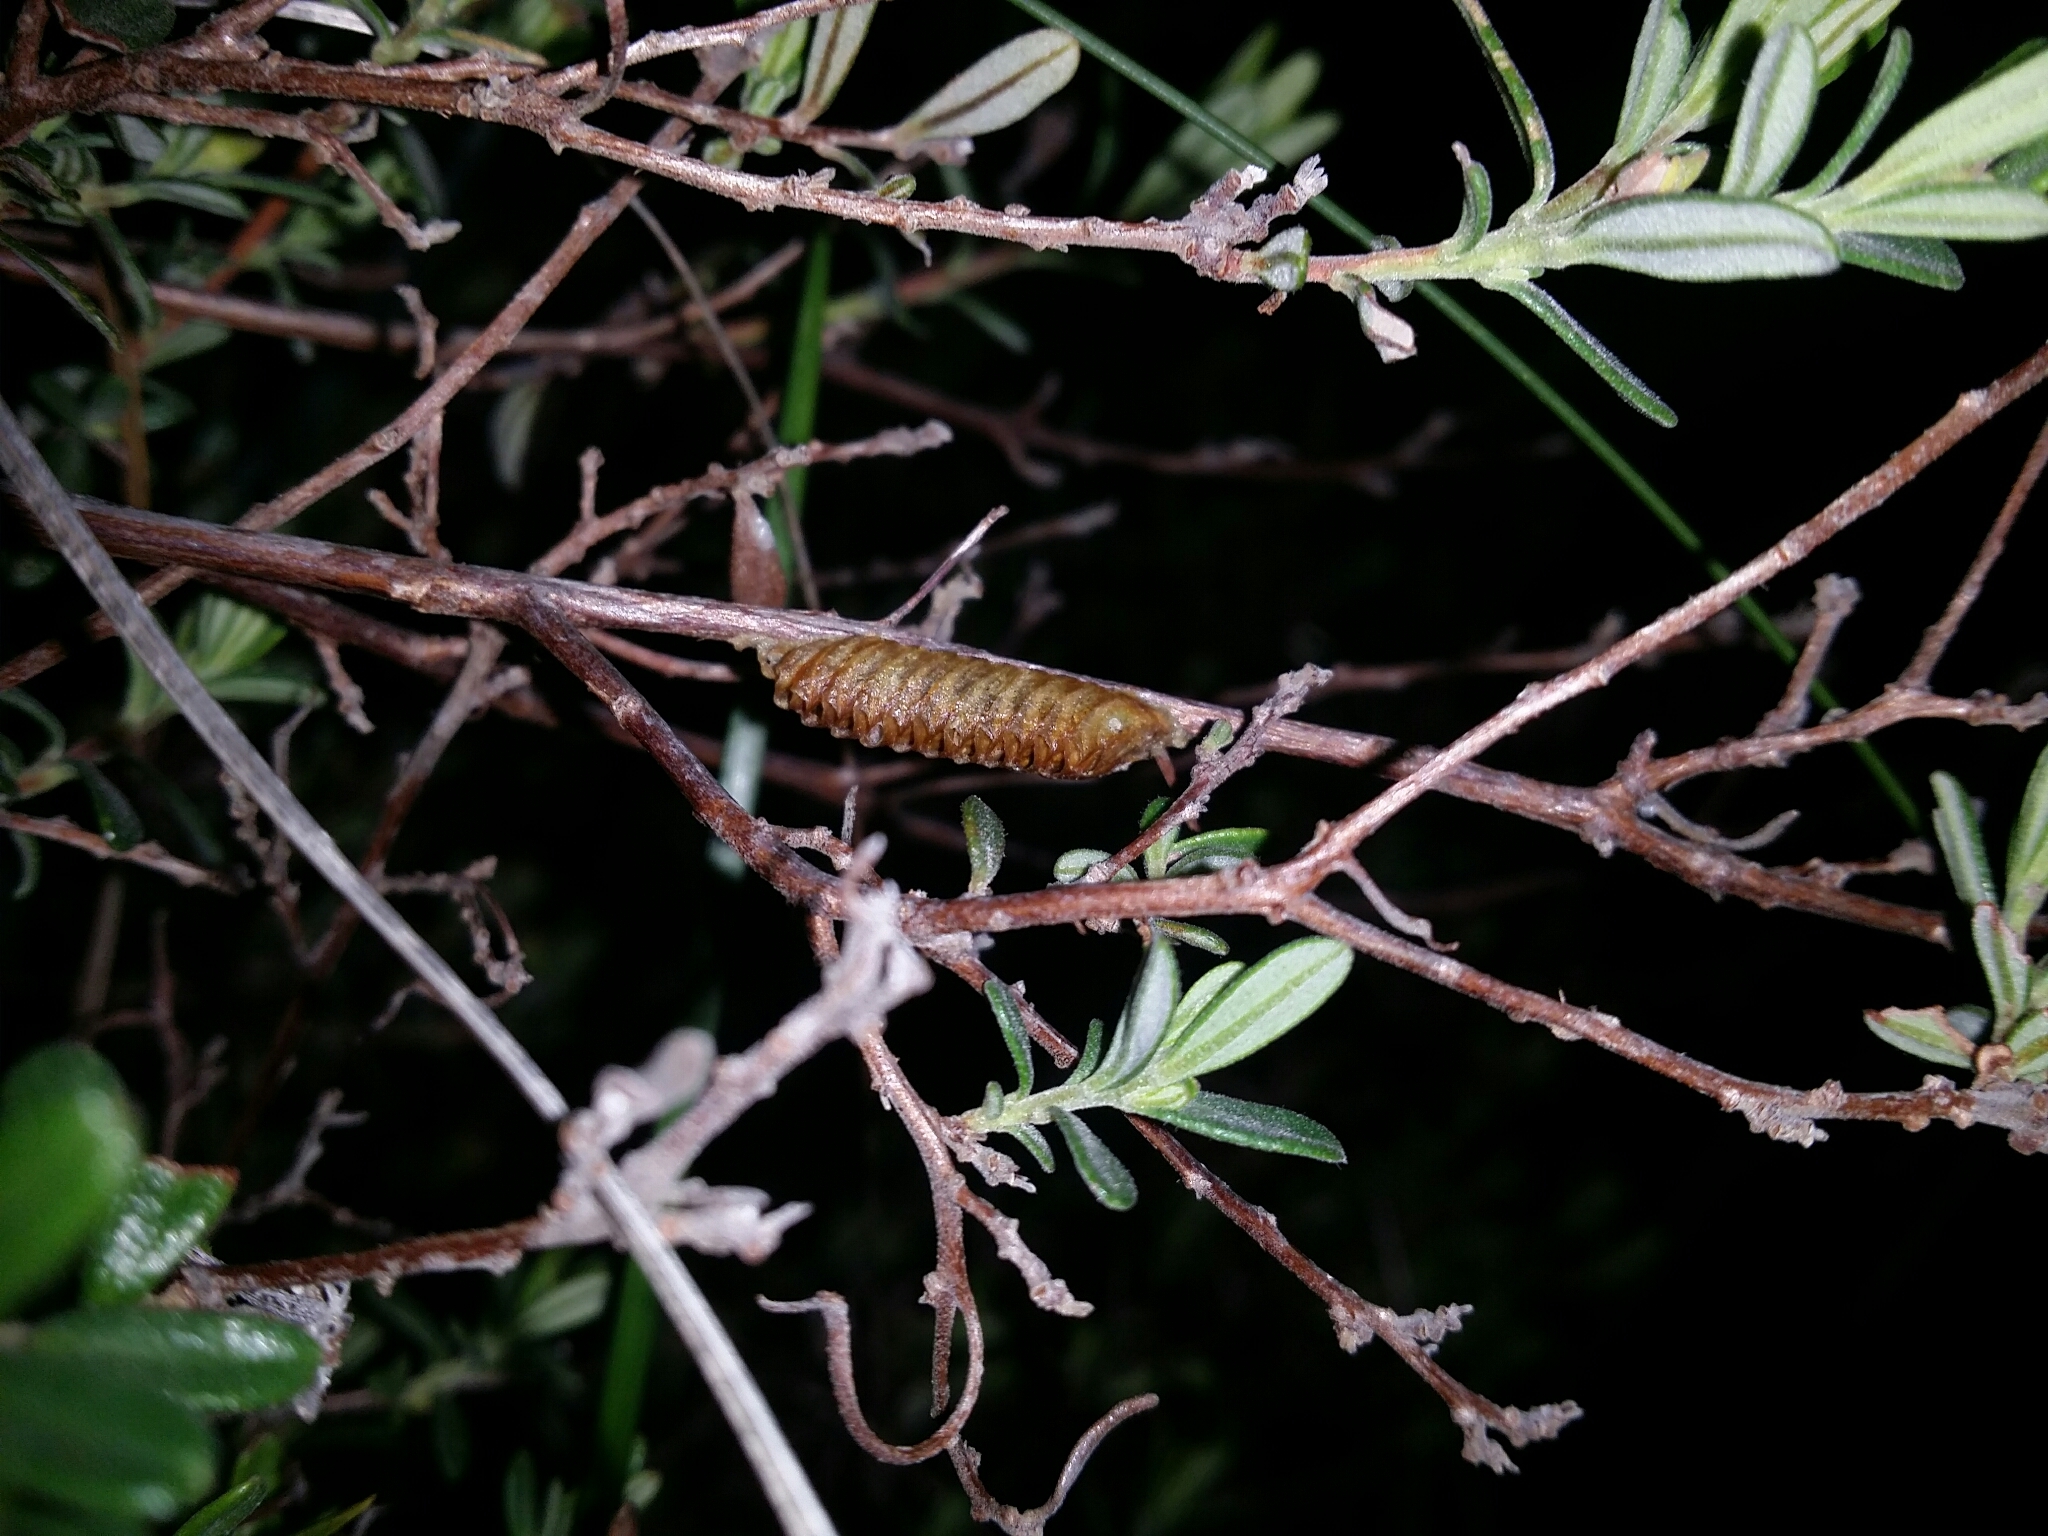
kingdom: Animalia
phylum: Arthropoda
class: Insecta
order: Mantodea
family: Mantidae
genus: Orthodera
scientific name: Orthodera ministralis
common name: Mantis
